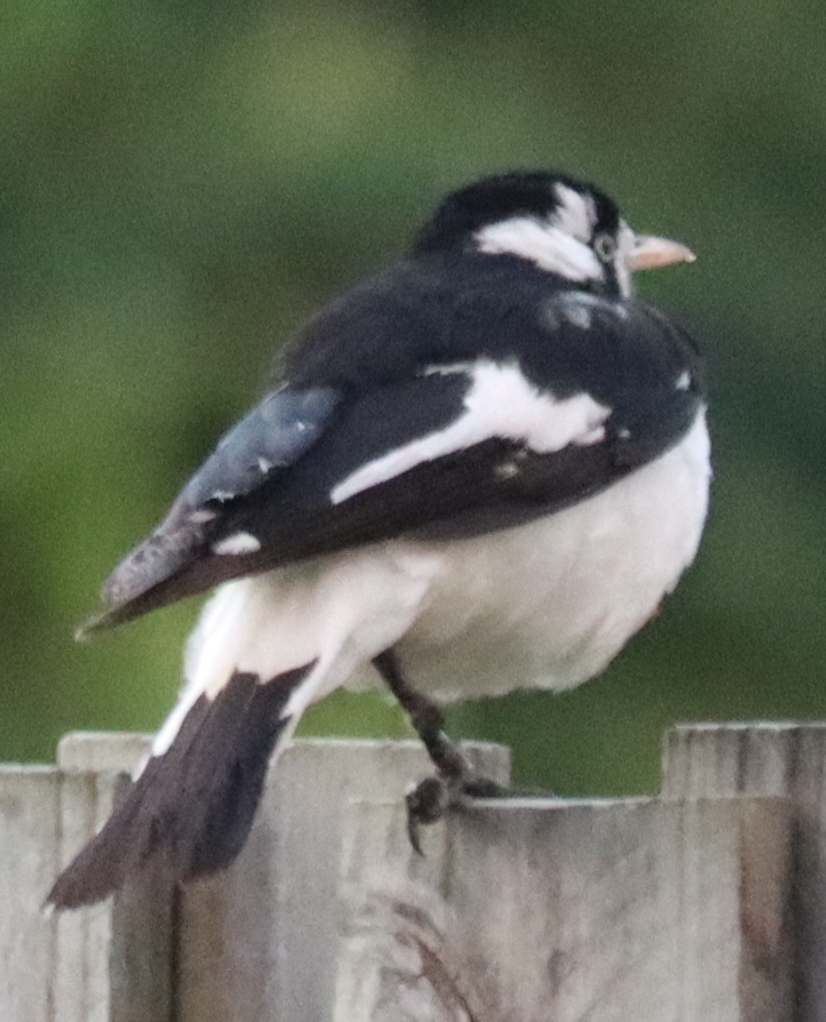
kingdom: Animalia
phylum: Chordata
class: Aves
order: Passeriformes
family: Monarchidae
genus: Grallina
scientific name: Grallina cyanoleuca
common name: Magpie-lark
